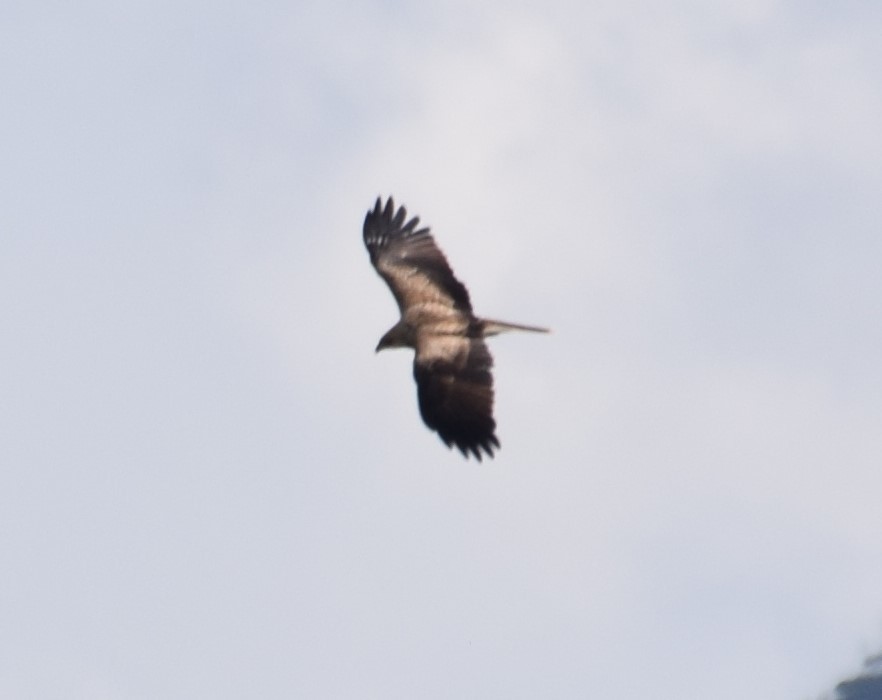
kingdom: Animalia
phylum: Chordata
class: Aves
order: Accipitriformes
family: Accipitridae
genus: Haliastur
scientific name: Haliastur sphenurus
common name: Whistling kite
